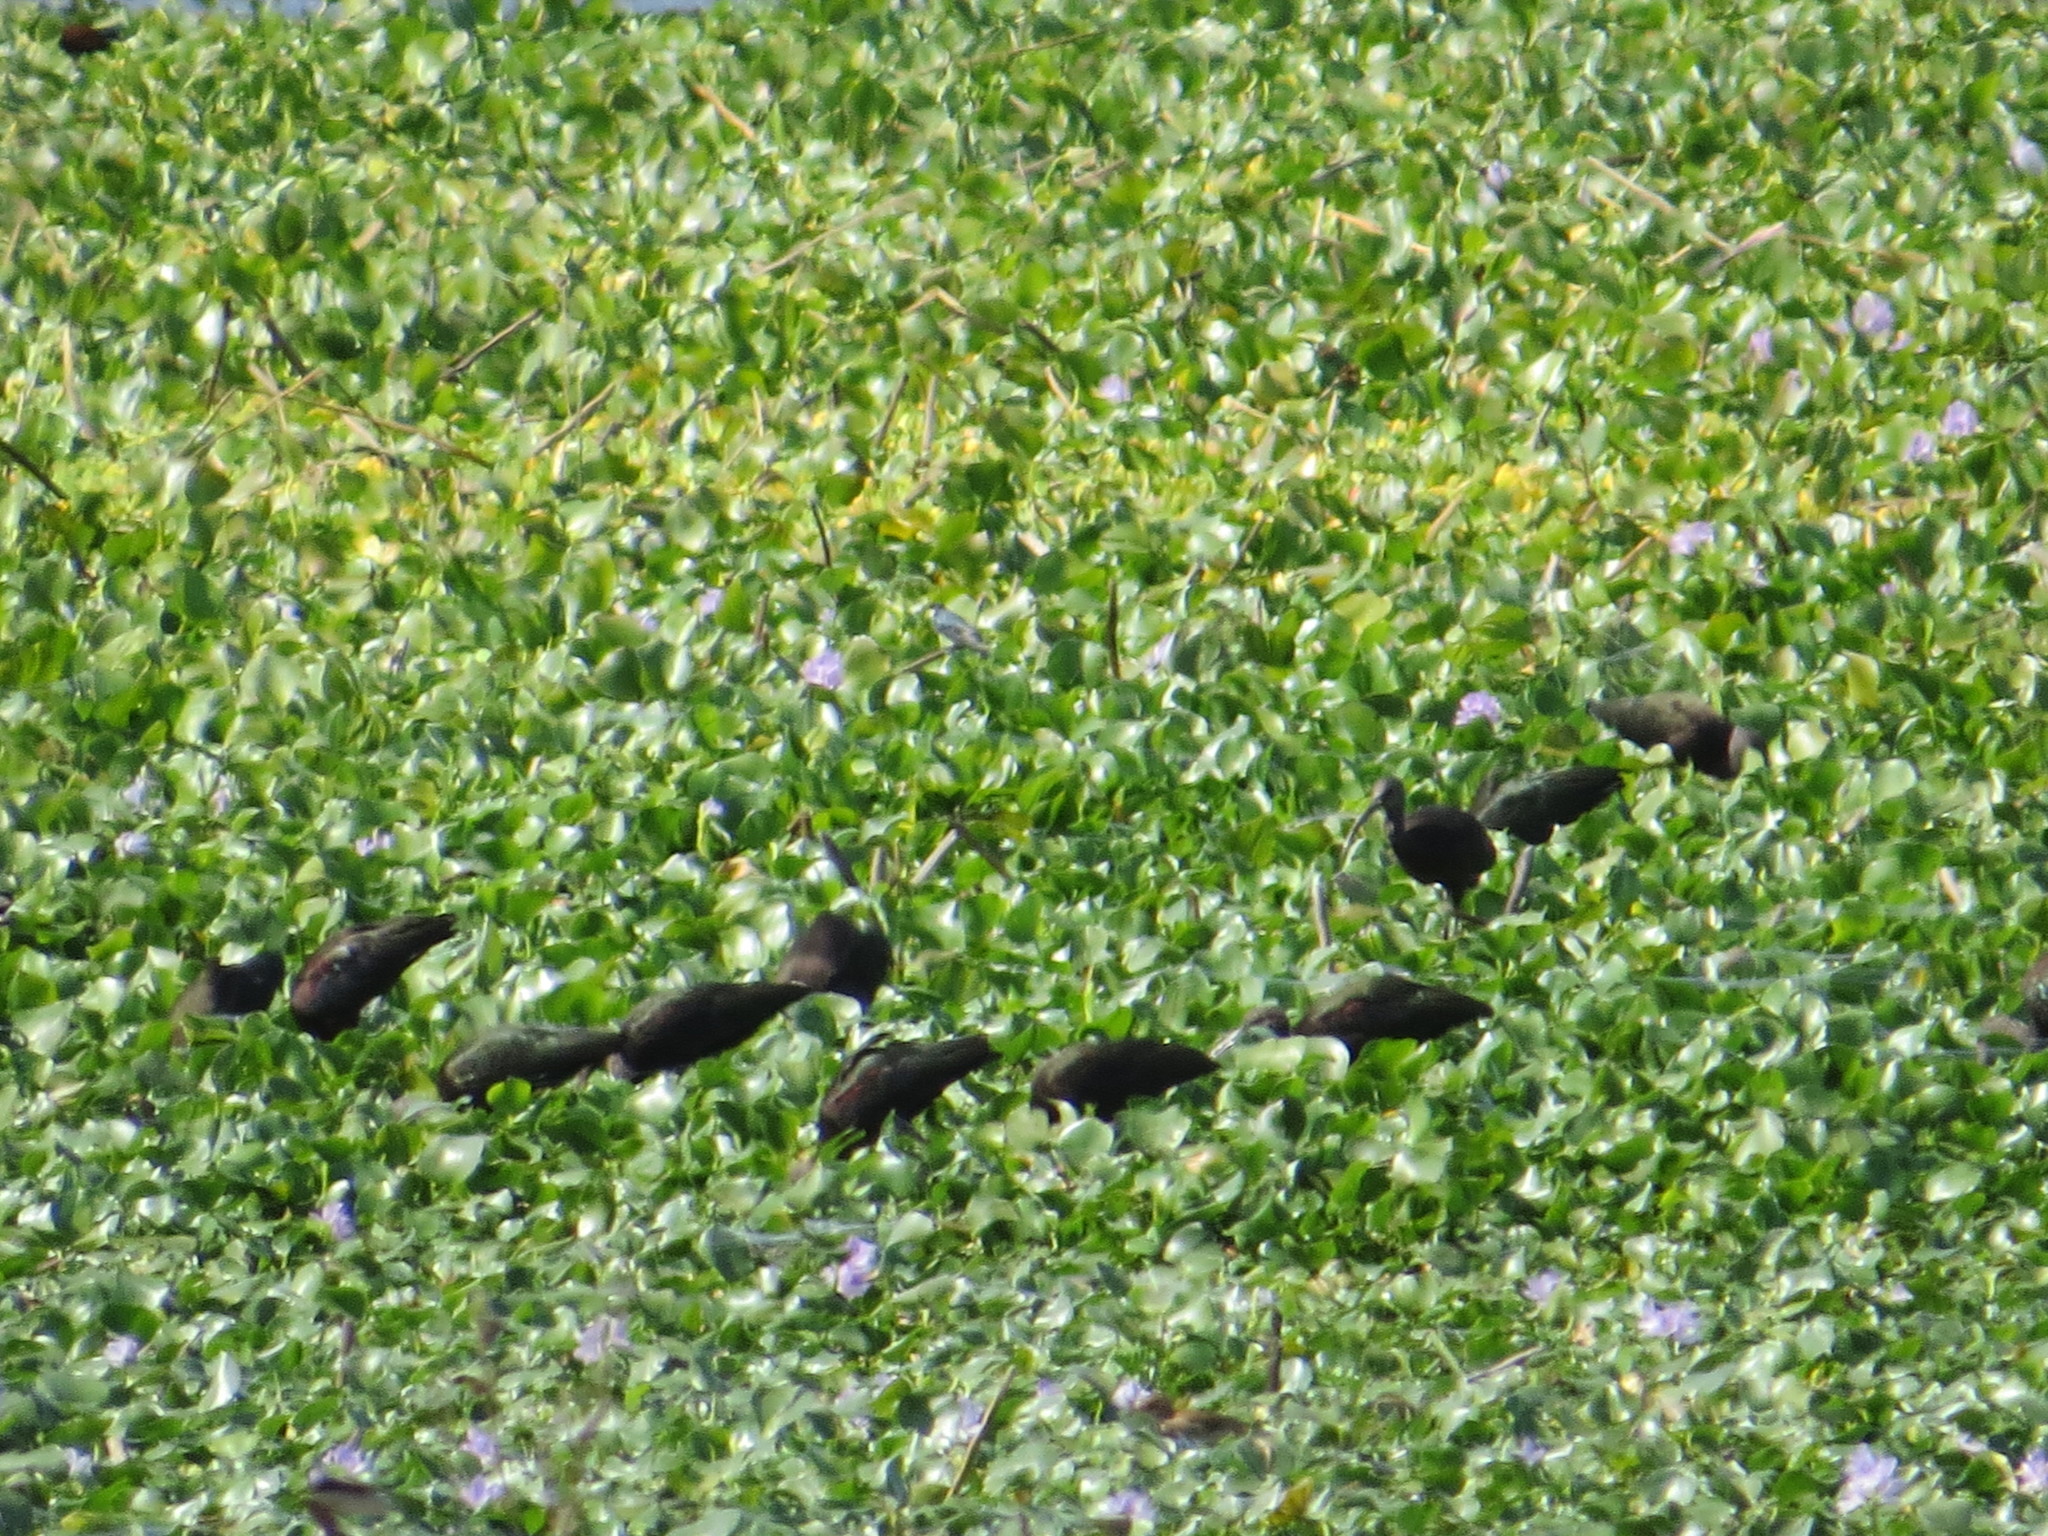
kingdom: Animalia
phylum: Chordata
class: Aves
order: Pelecaniformes
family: Threskiornithidae
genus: Plegadis
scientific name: Plegadis chihi
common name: White-faced ibis
